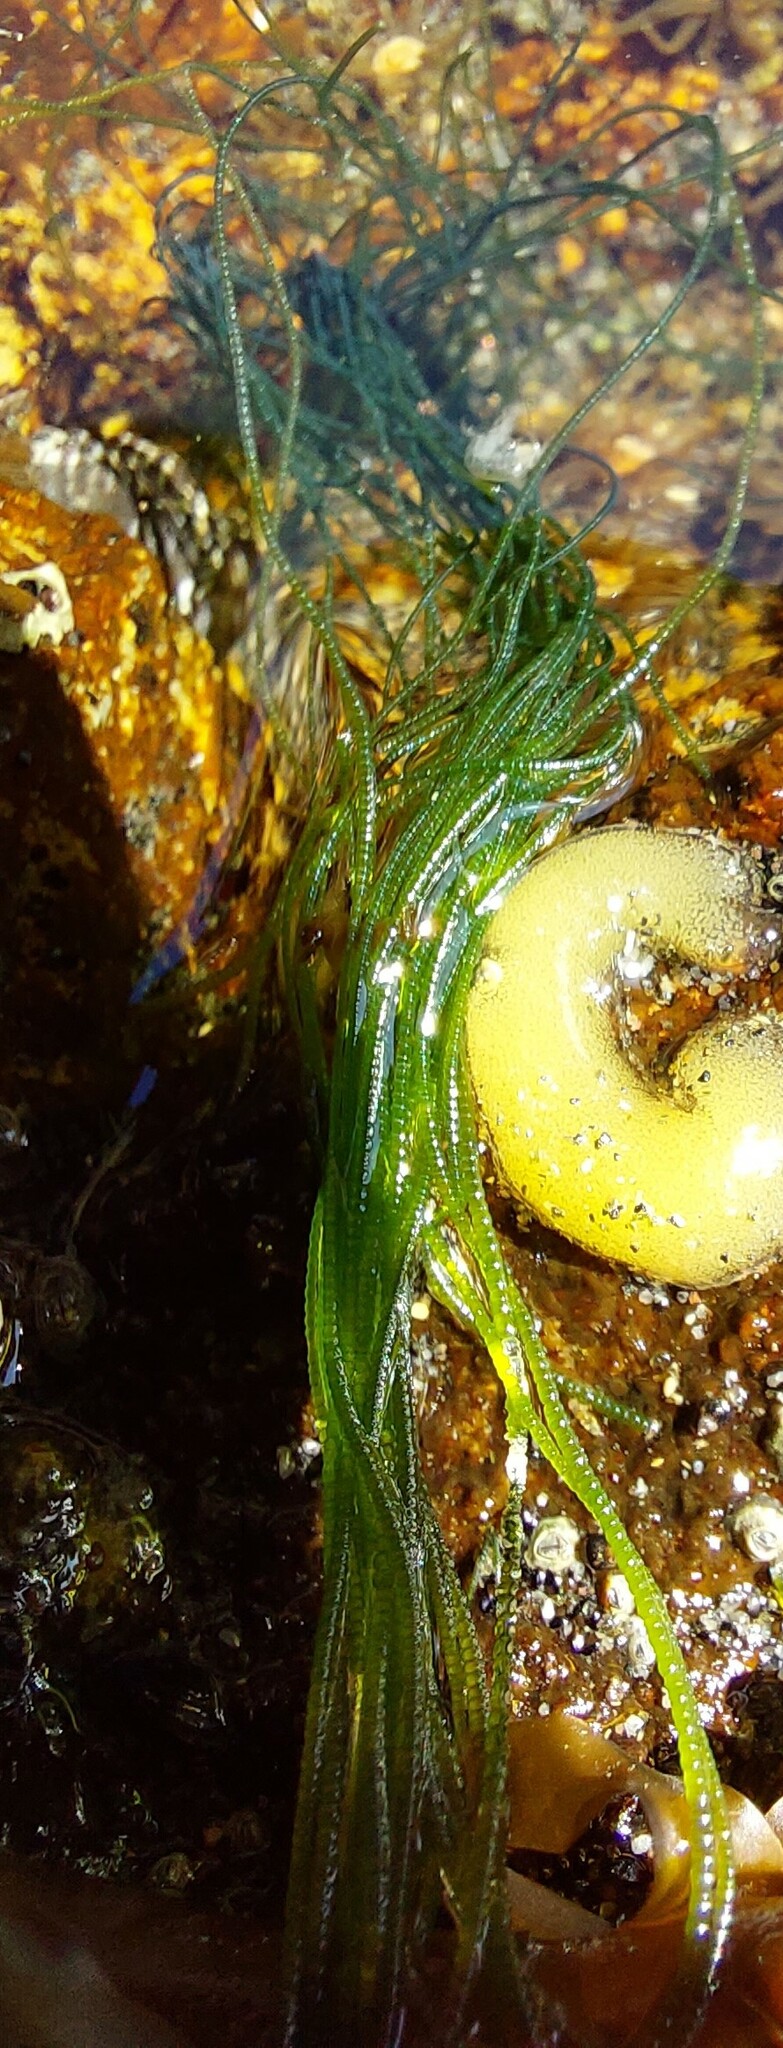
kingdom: Plantae
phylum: Chlorophyta
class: Ulvophyceae
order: Cladophorales
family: Cladophoraceae
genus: Chaetomorpha
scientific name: Chaetomorpha coliformis
